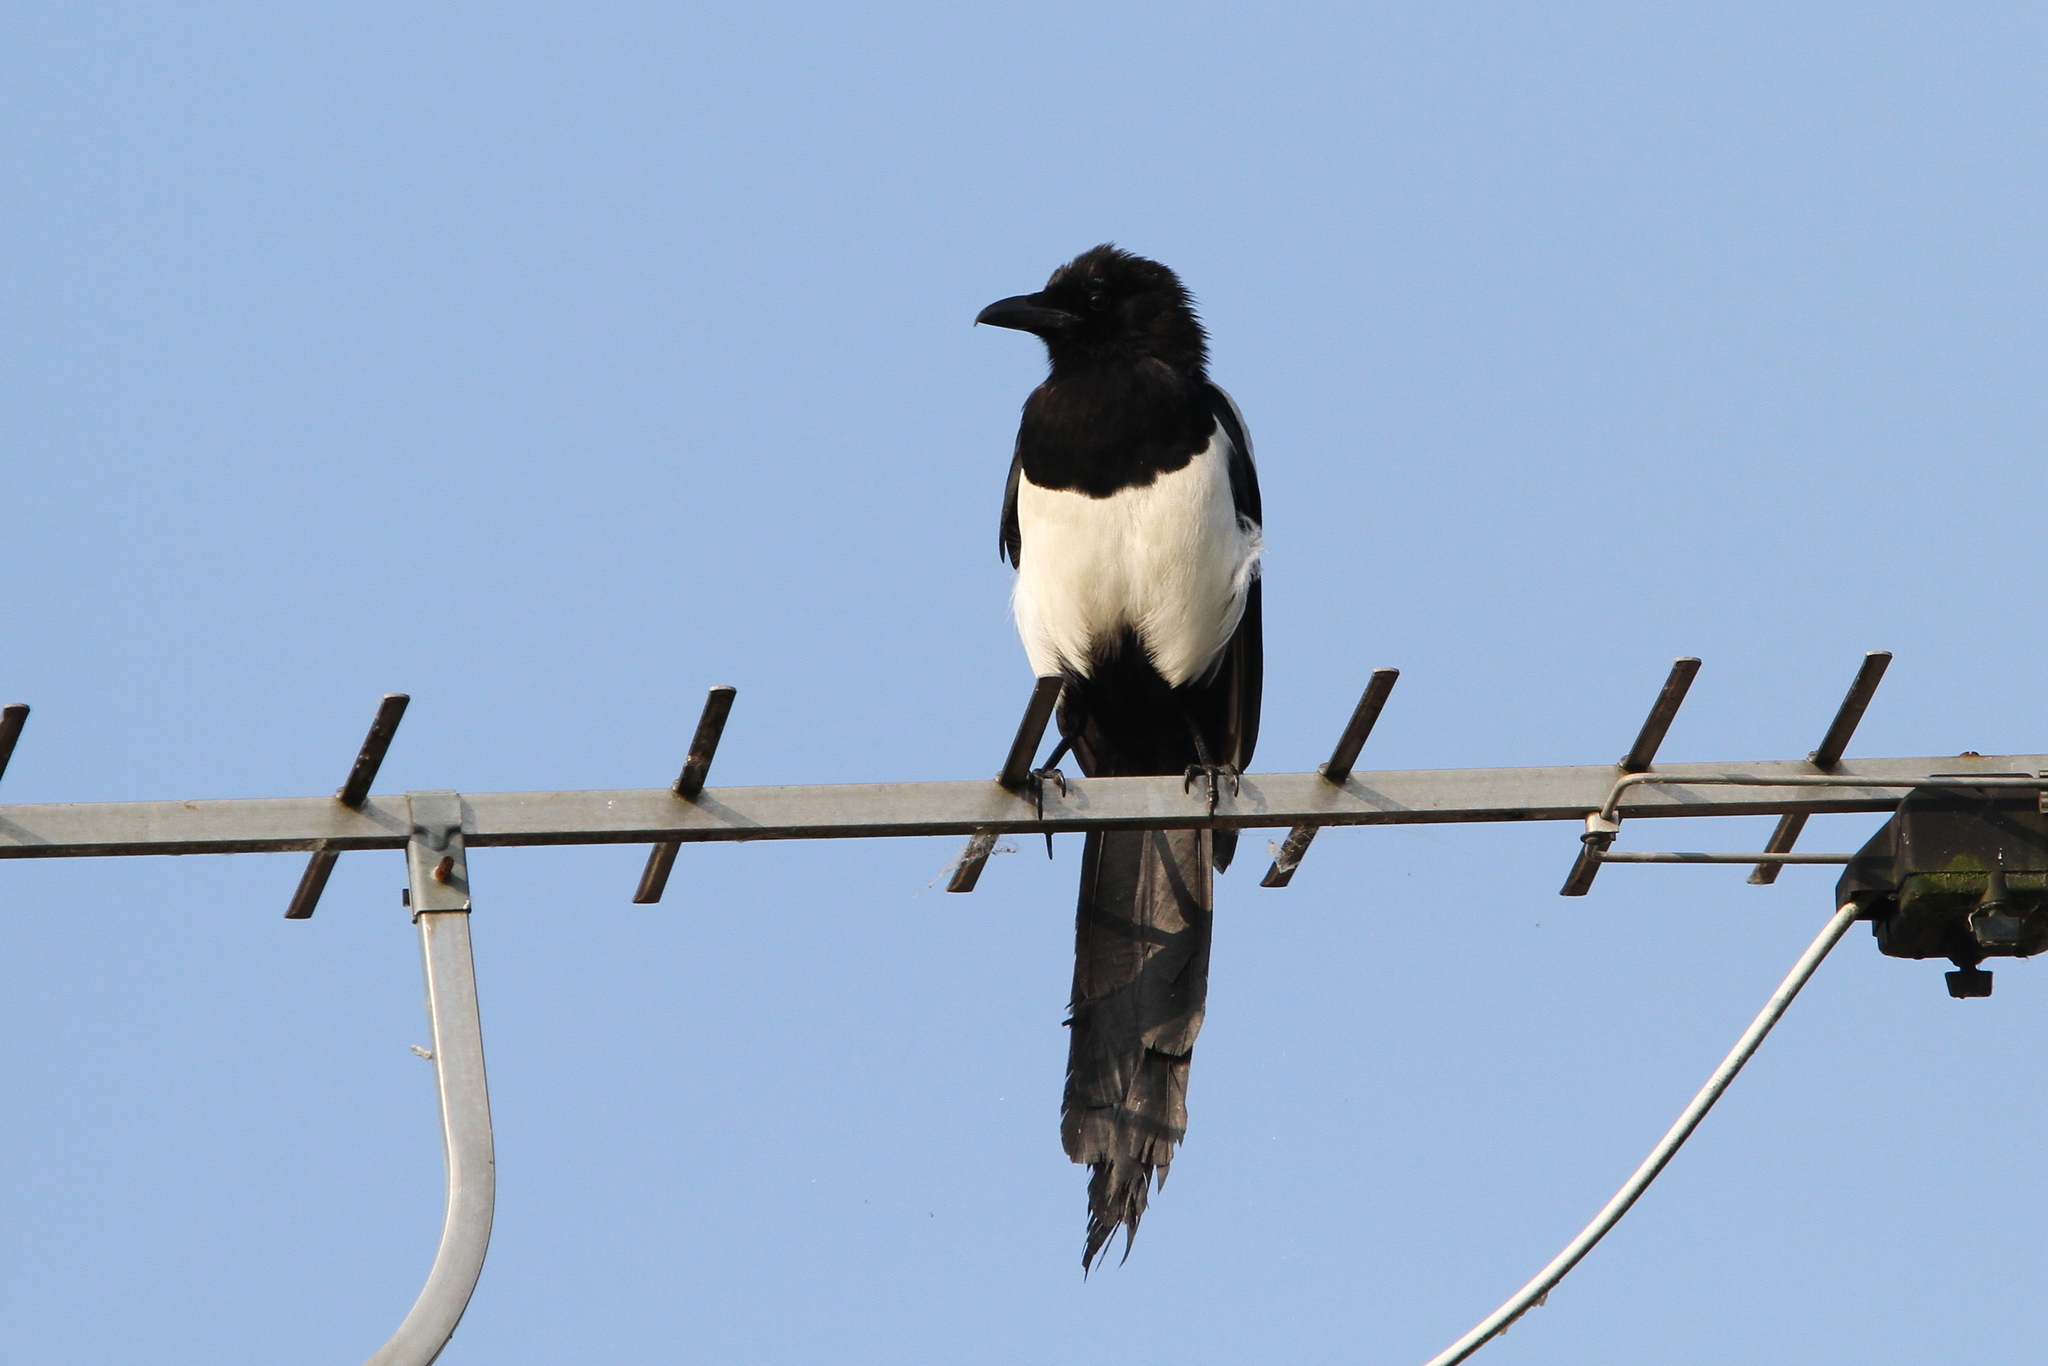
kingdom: Animalia
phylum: Chordata
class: Aves
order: Passeriformes
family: Corvidae
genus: Pica
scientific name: Pica pica
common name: Eurasian magpie
